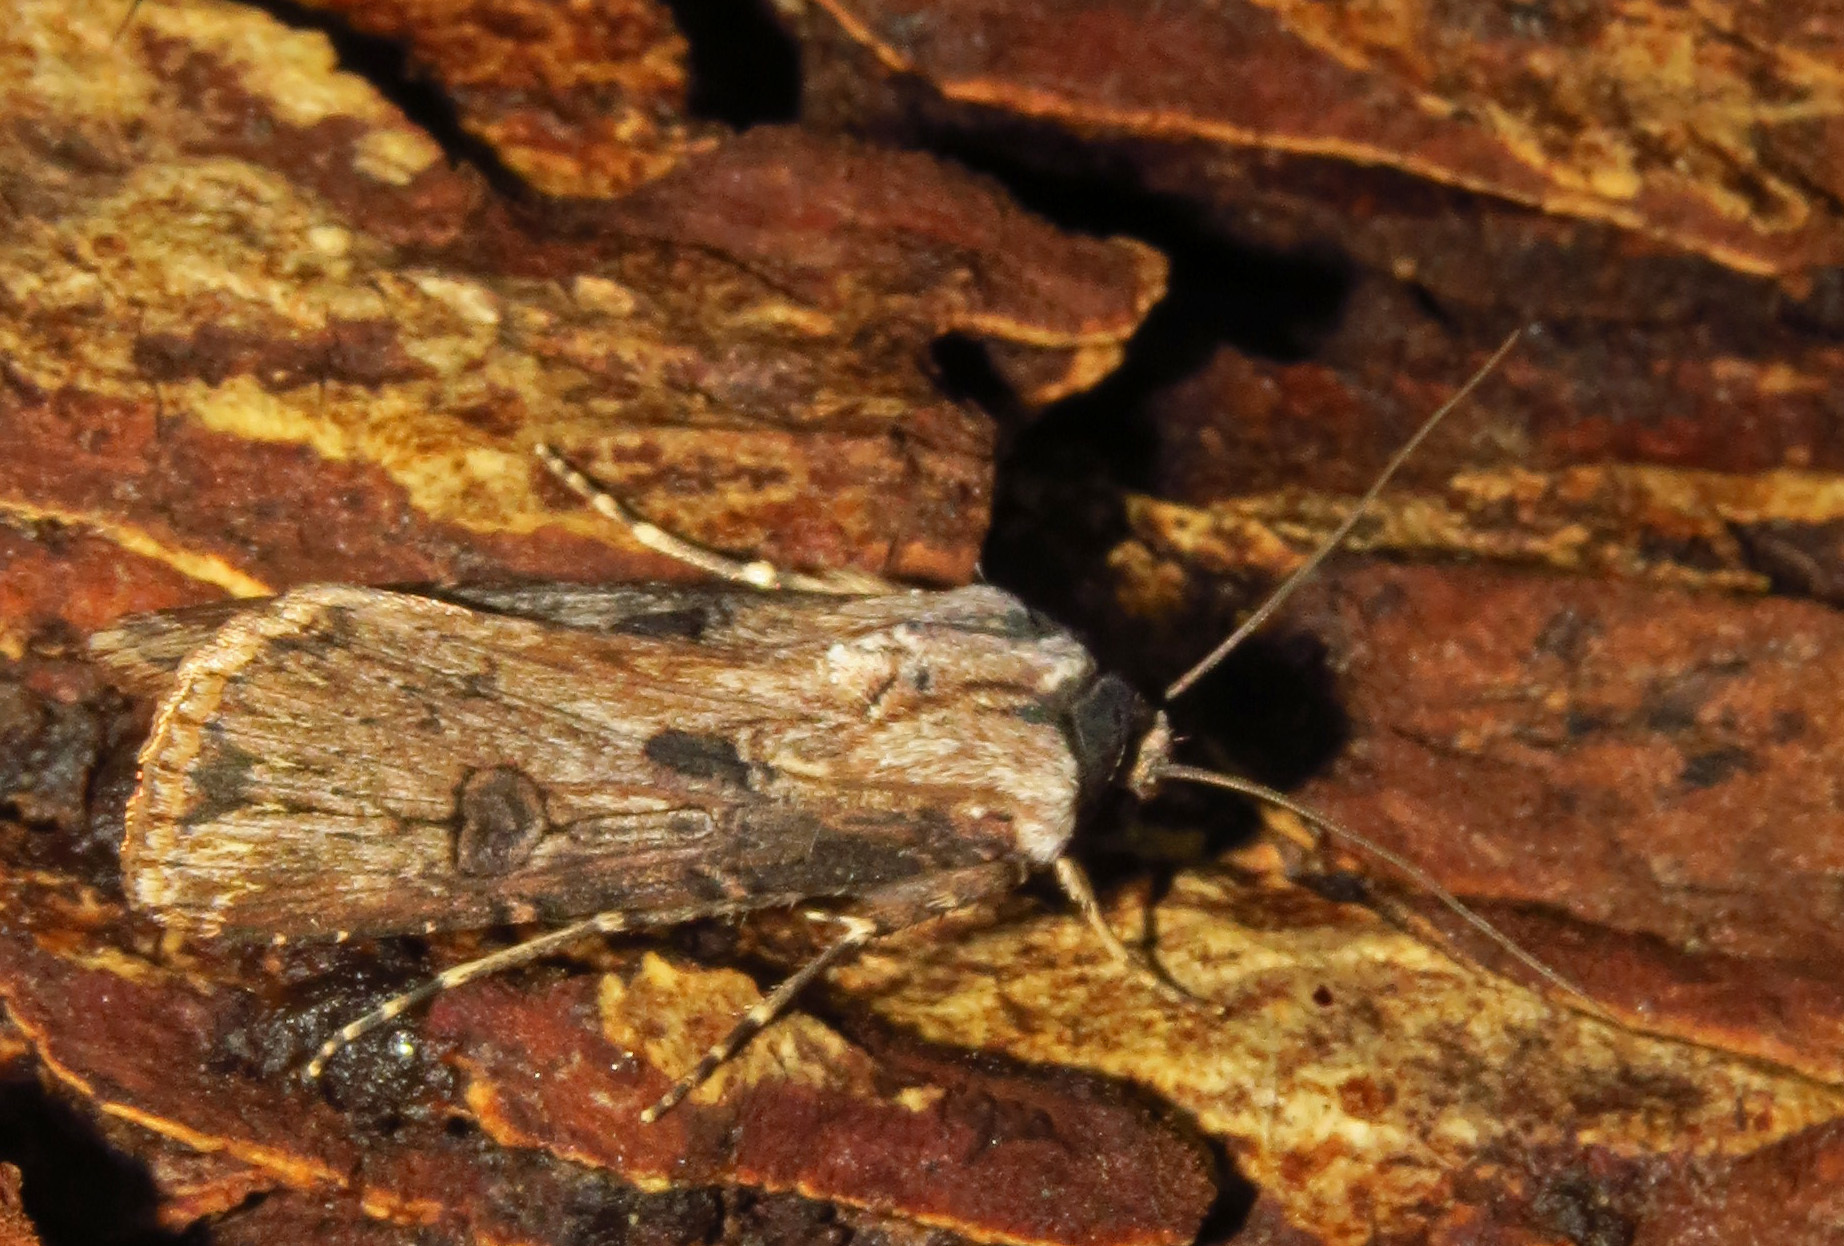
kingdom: Animalia
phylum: Arthropoda
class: Insecta
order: Lepidoptera
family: Noctuidae
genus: Agrotis
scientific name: Agrotis ipsilon
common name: Dark sword-grass
